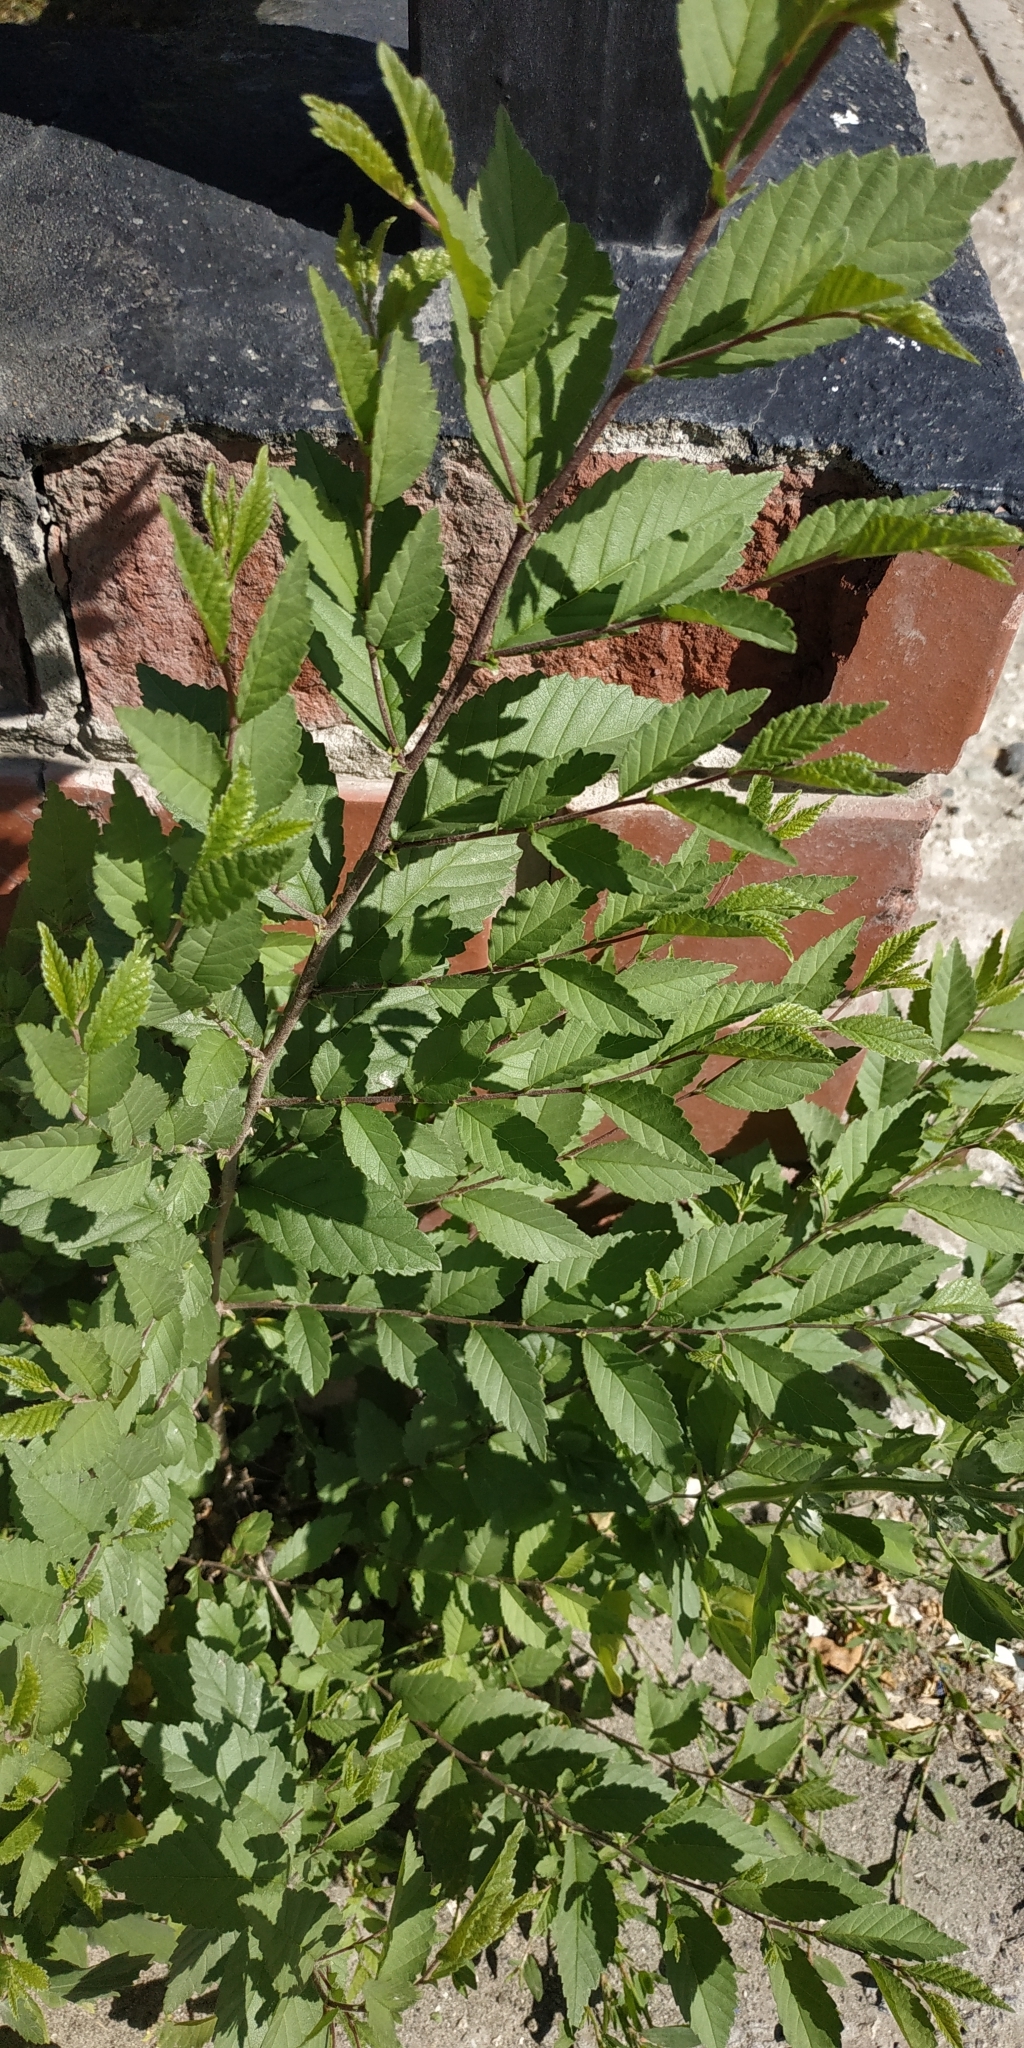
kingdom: Plantae
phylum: Tracheophyta
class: Magnoliopsida
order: Rosales
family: Ulmaceae
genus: Ulmus
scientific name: Ulmus pumila
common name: Siberian elm
